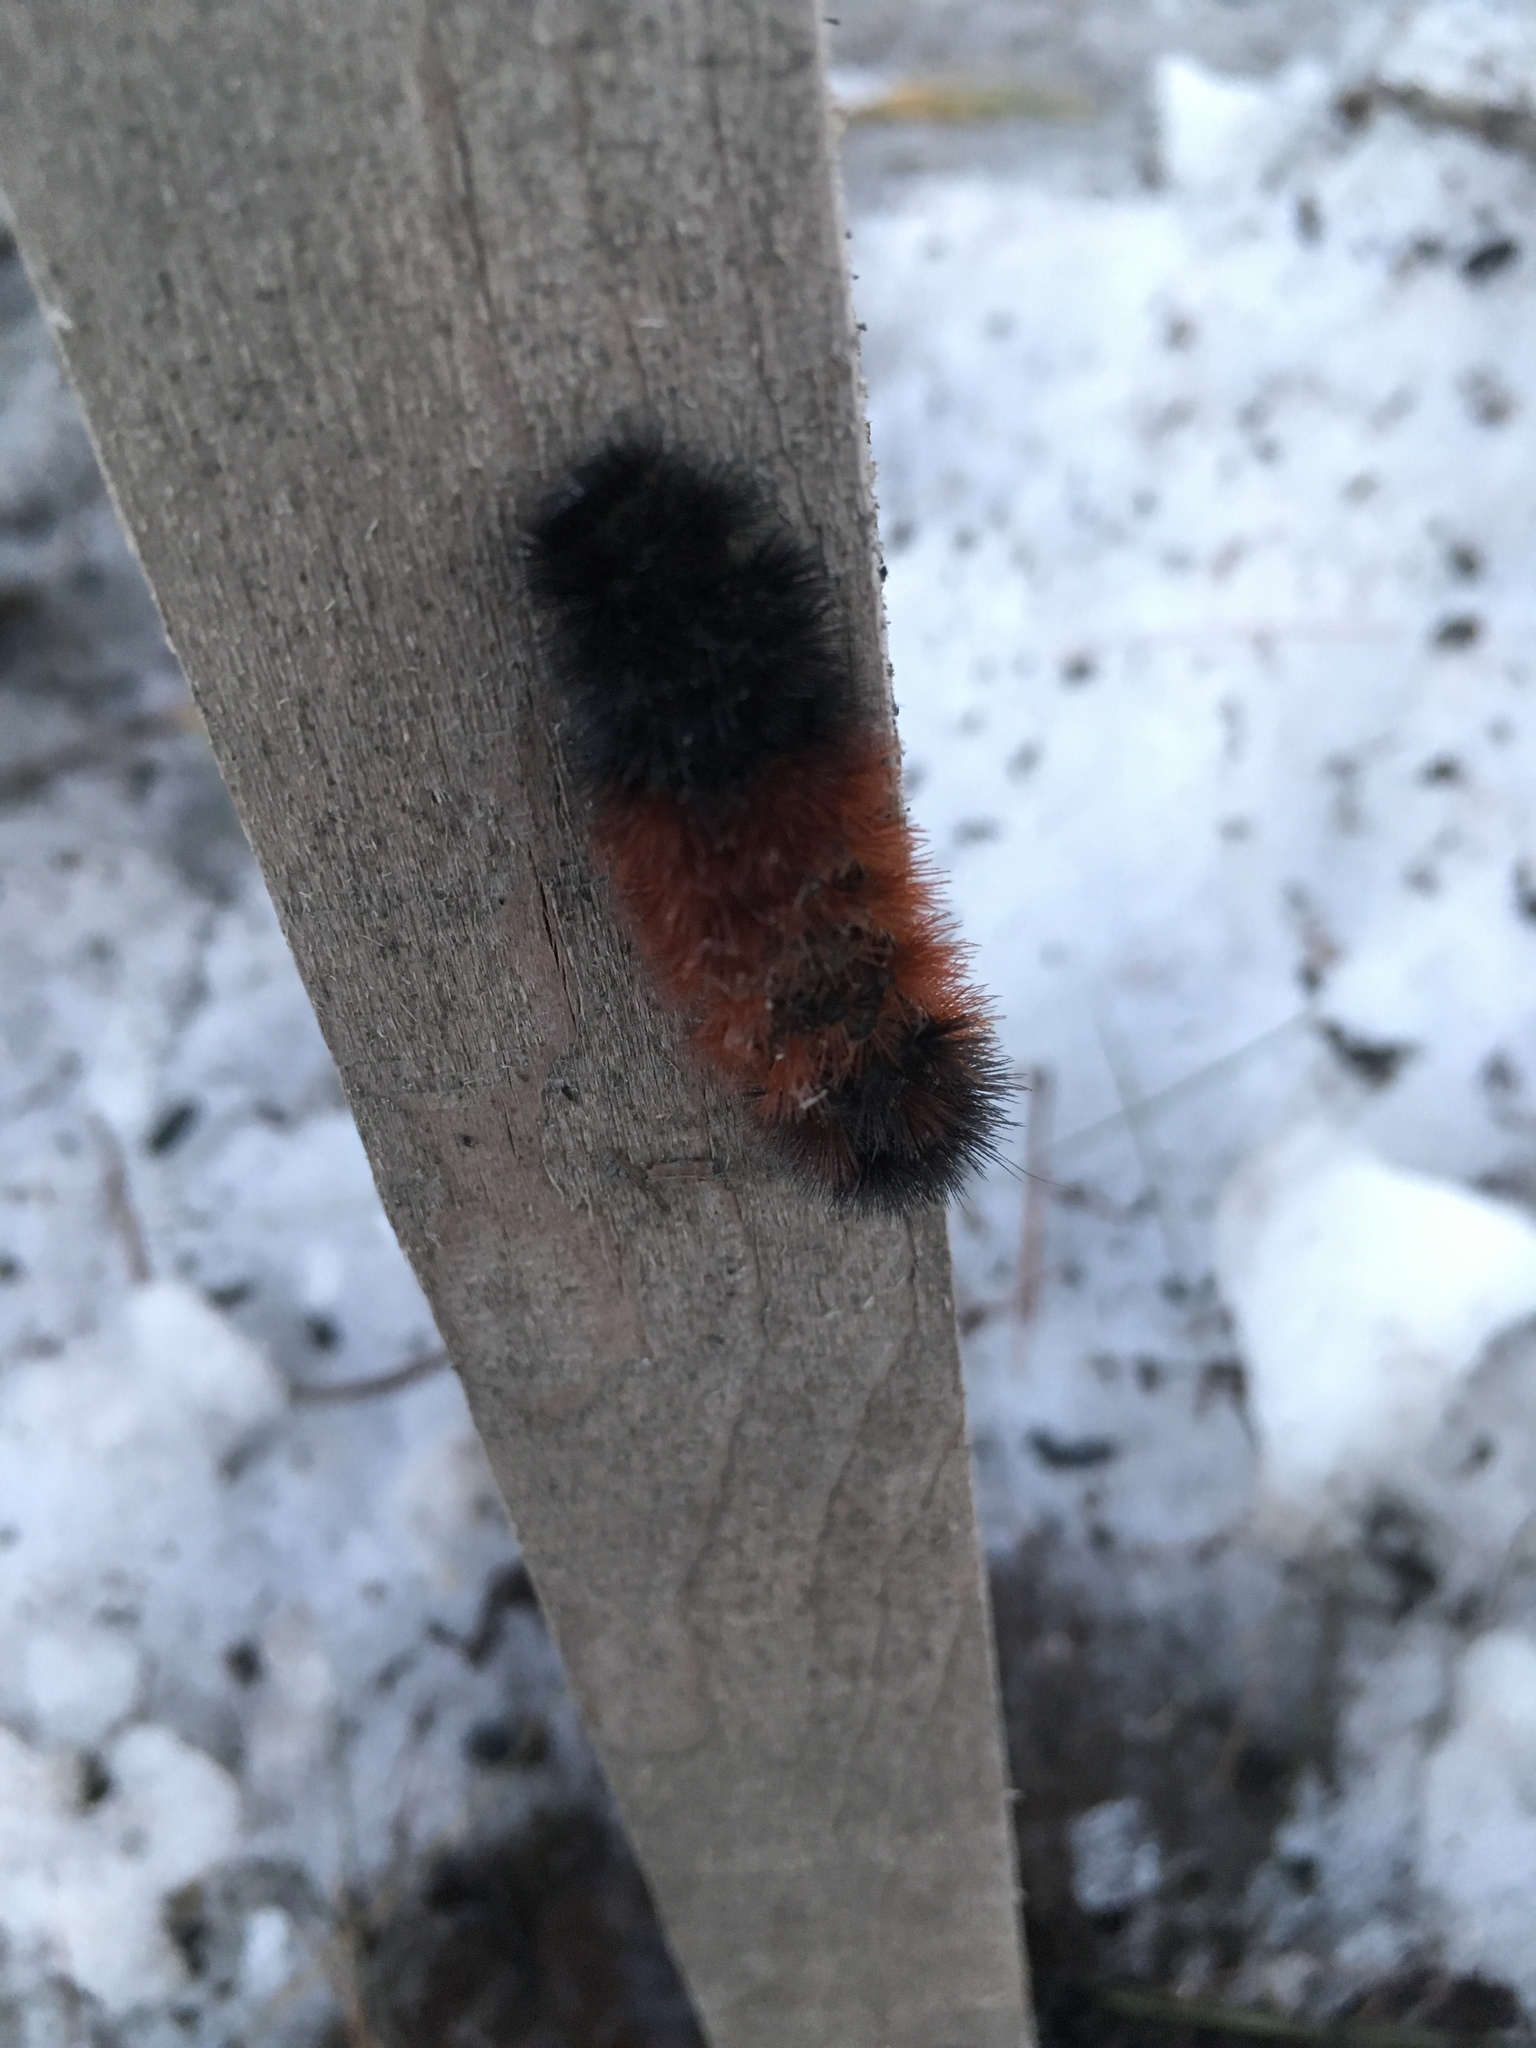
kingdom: Animalia
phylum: Arthropoda
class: Insecta
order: Lepidoptera
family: Erebidae
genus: Pyrrharctia
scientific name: Pyrrharctia isabella
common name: Isabella tiger moth
